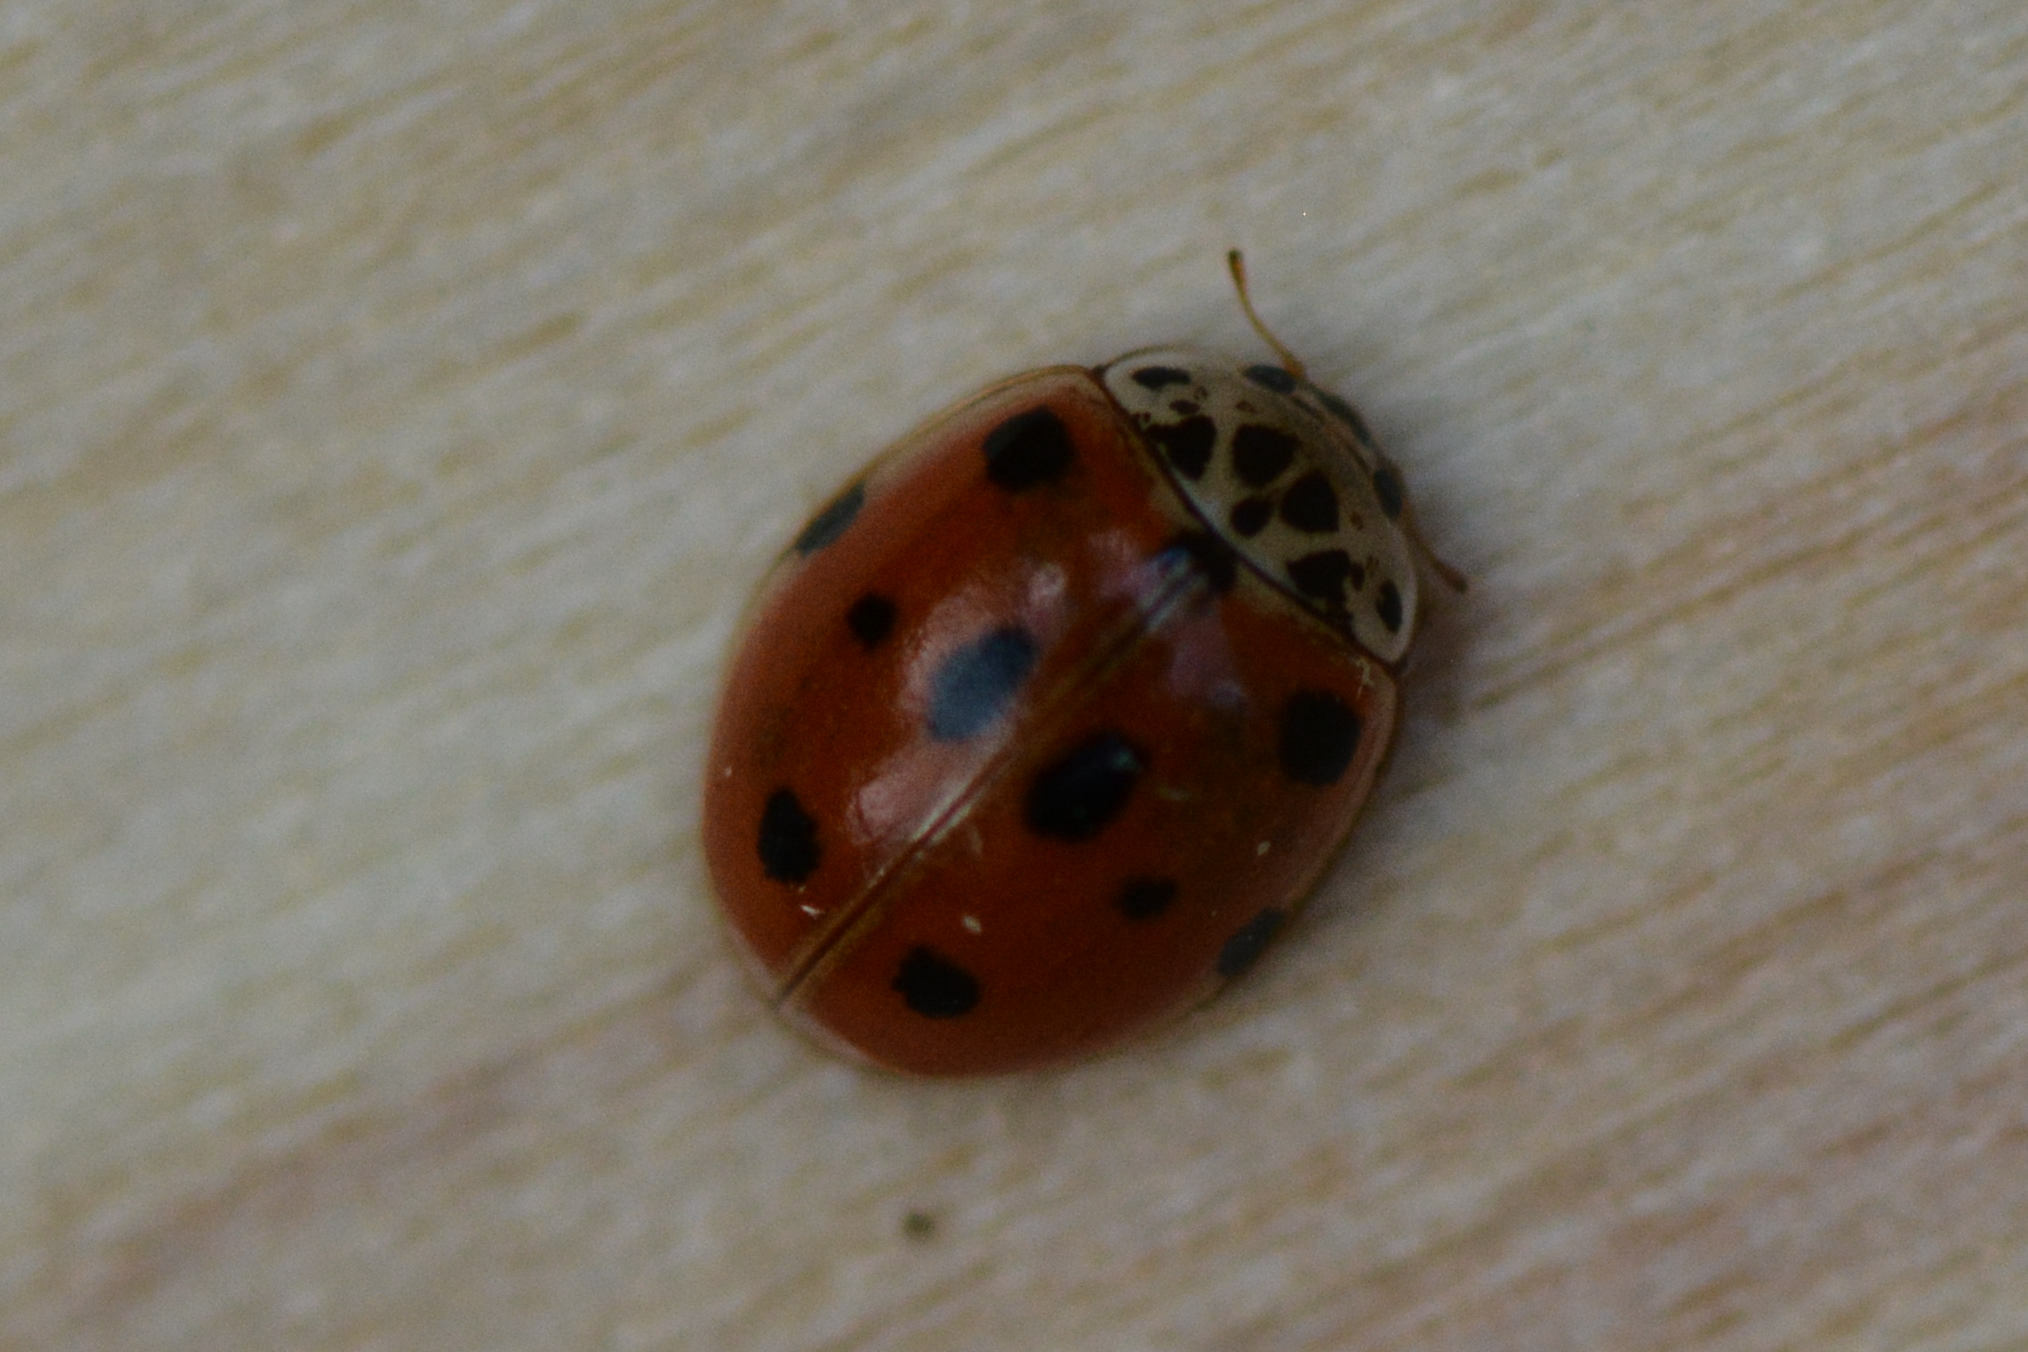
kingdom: Animalia
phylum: Arthropoda
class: Insecta
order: Coleoptera
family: Coccinellidae
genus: Adalia
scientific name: Adalia decempunctata
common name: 10-spot ladybird
